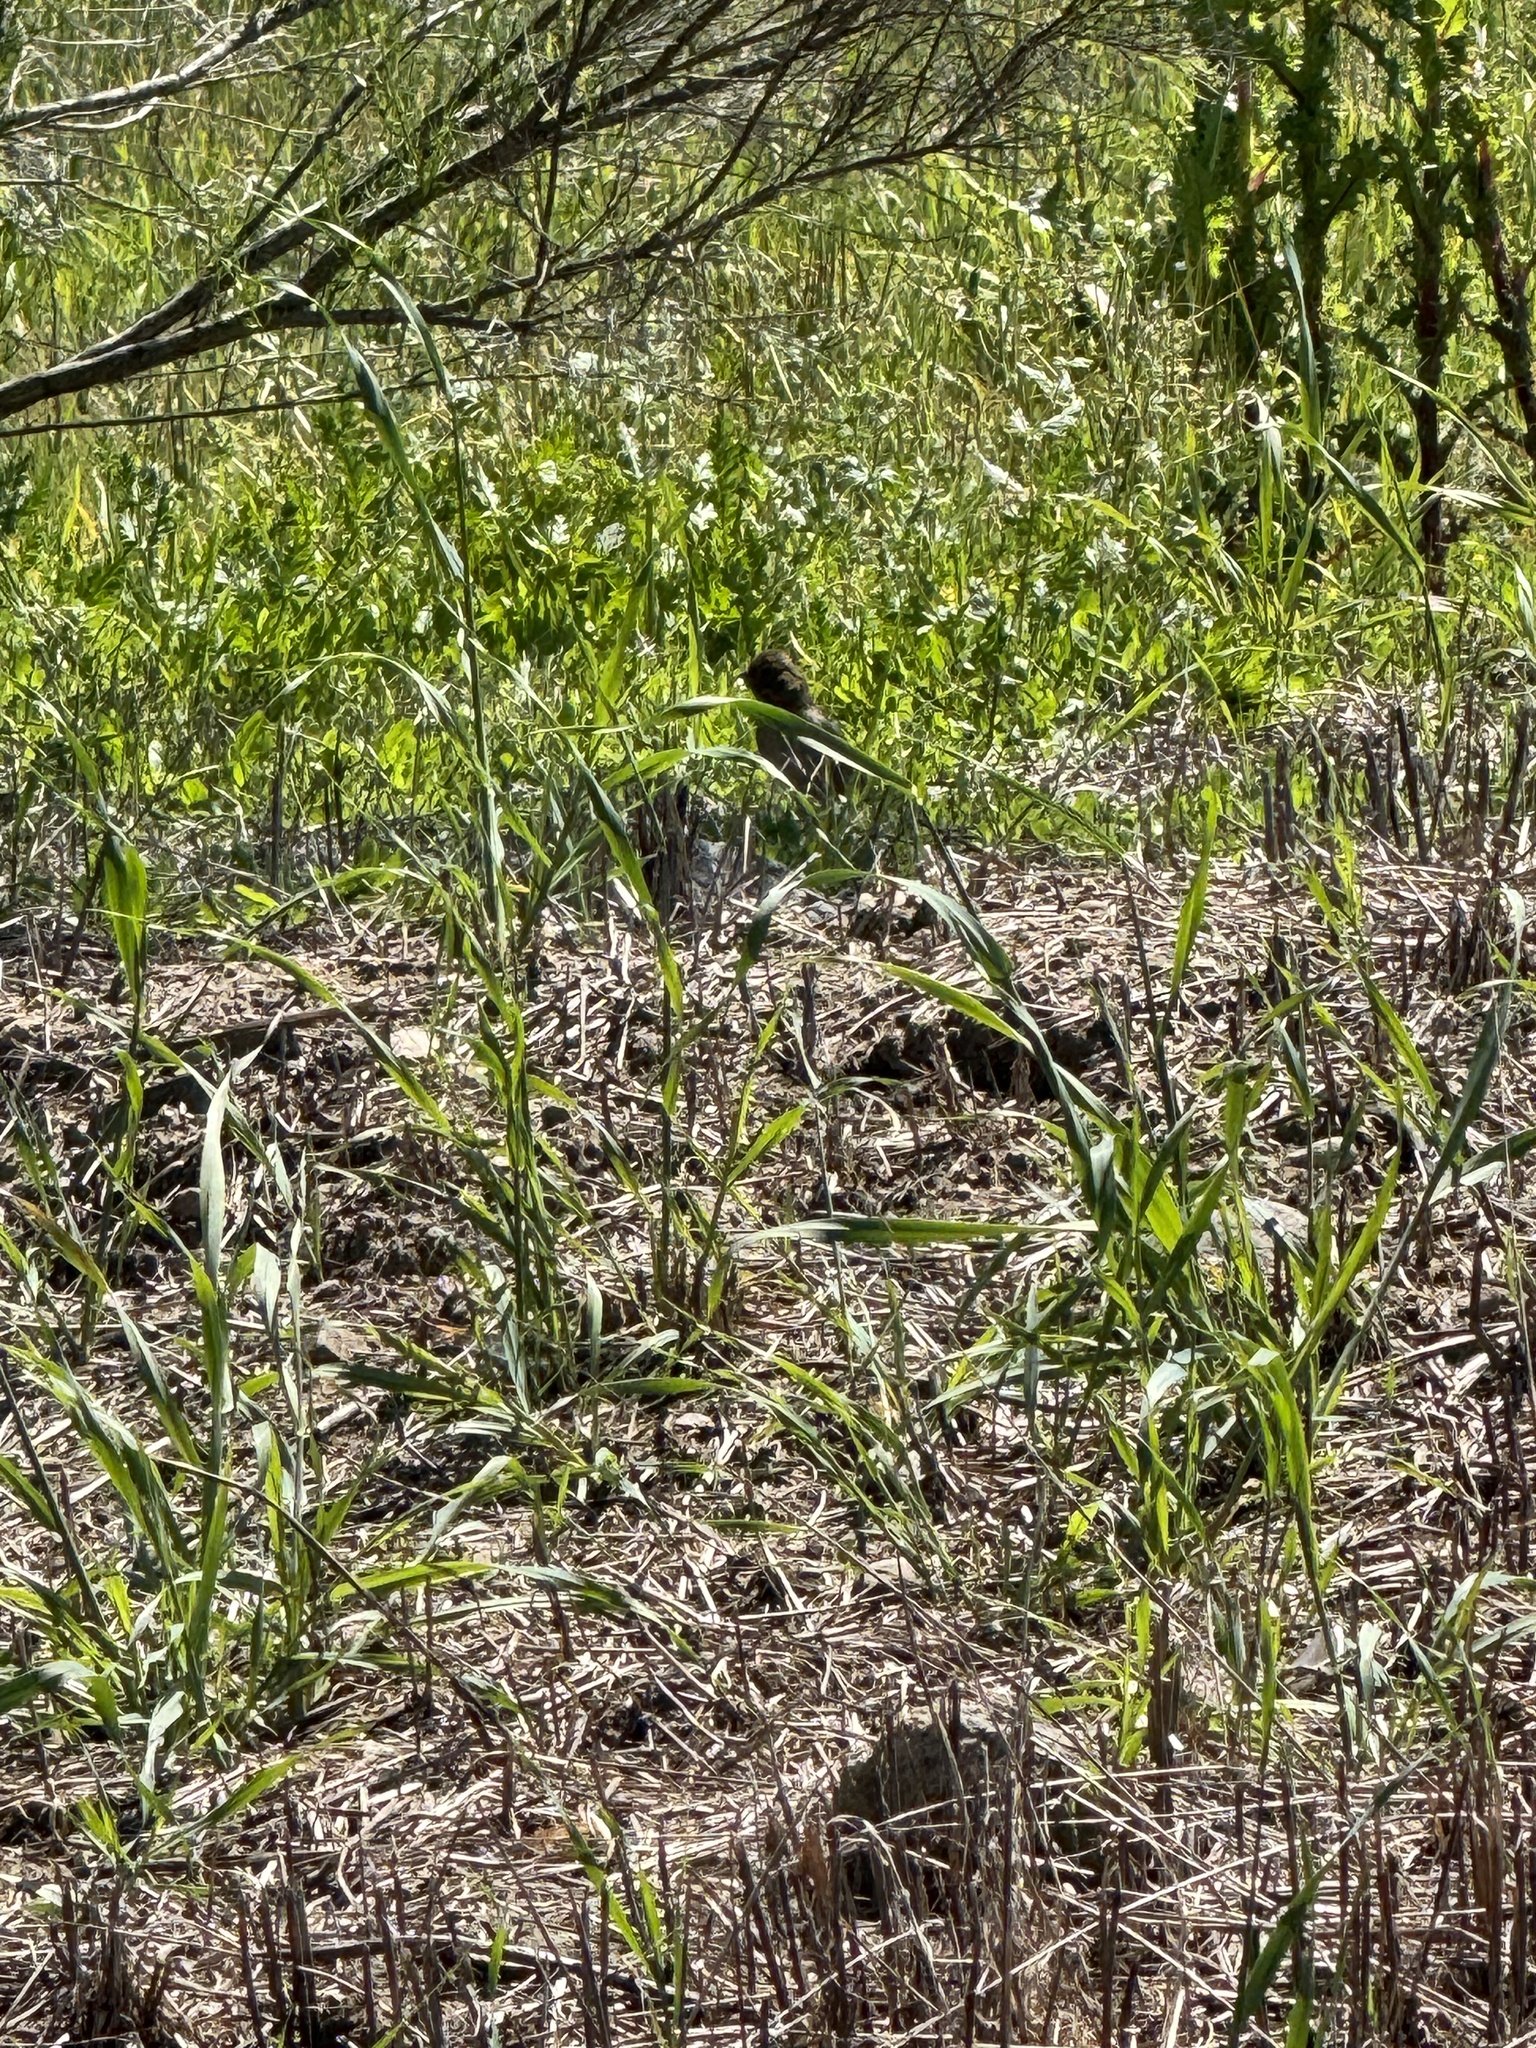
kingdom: Animalia
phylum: Chordata
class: Aves
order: Passeriformes
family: Passerellidae
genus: Melozone
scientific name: Melozone crissalis
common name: California towhee
